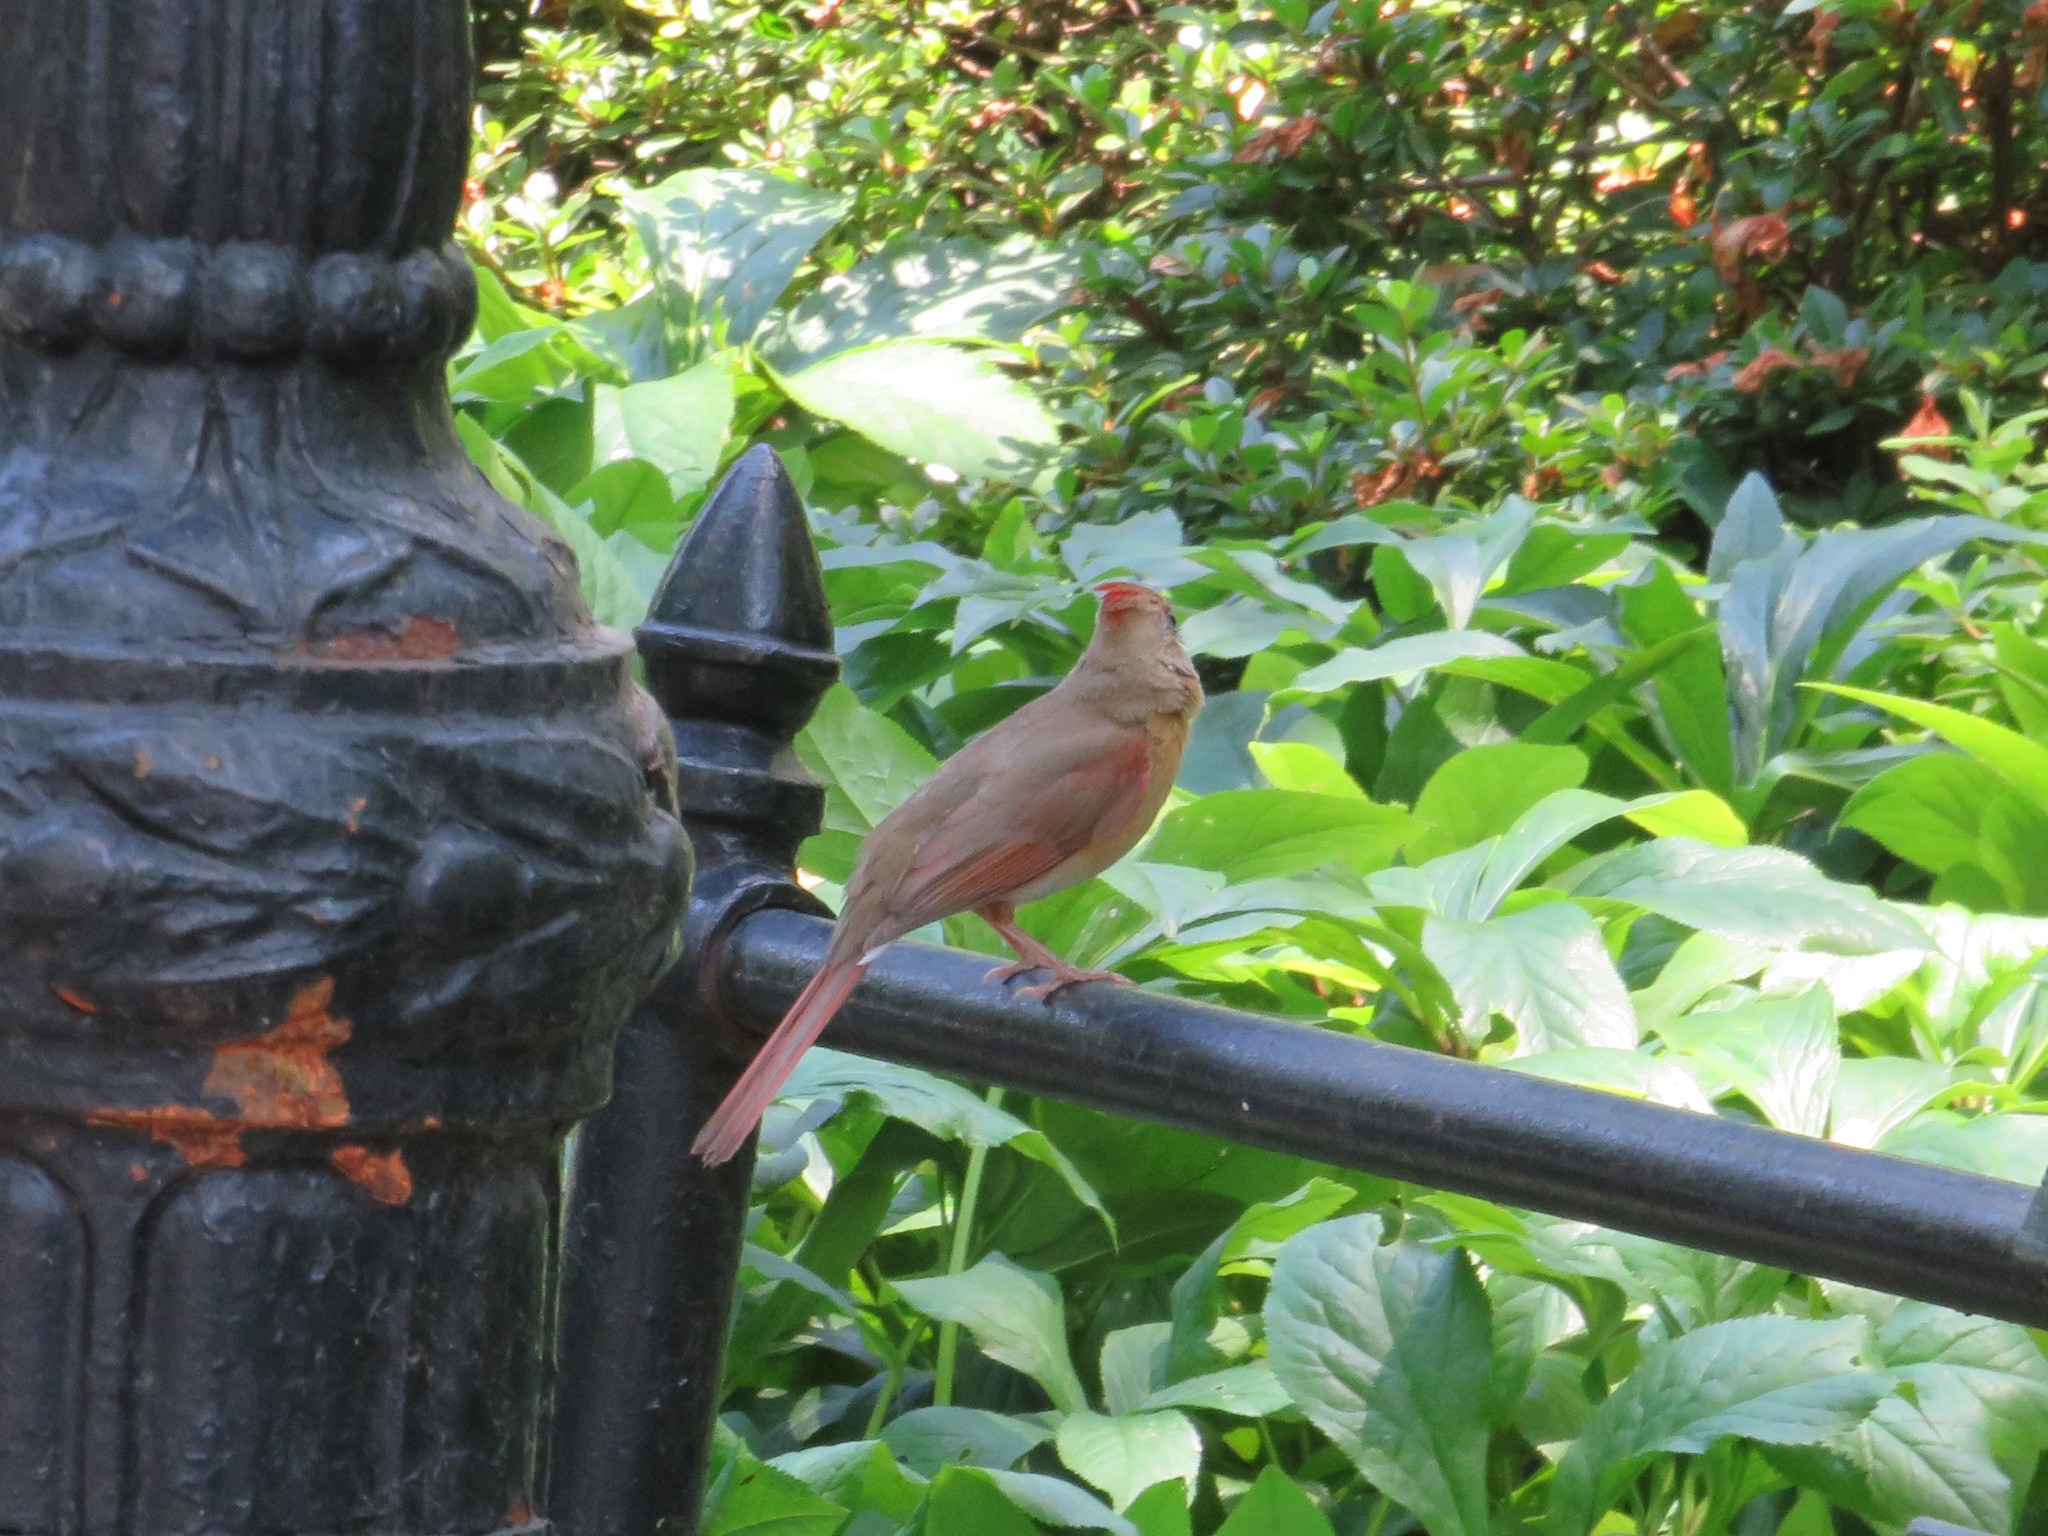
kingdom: Animalia
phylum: Chordata
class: Aves
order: Passeriformes
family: Cardinalidae
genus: Cardinalis
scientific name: Cardinalis cardinalis
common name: Northern cardinal
